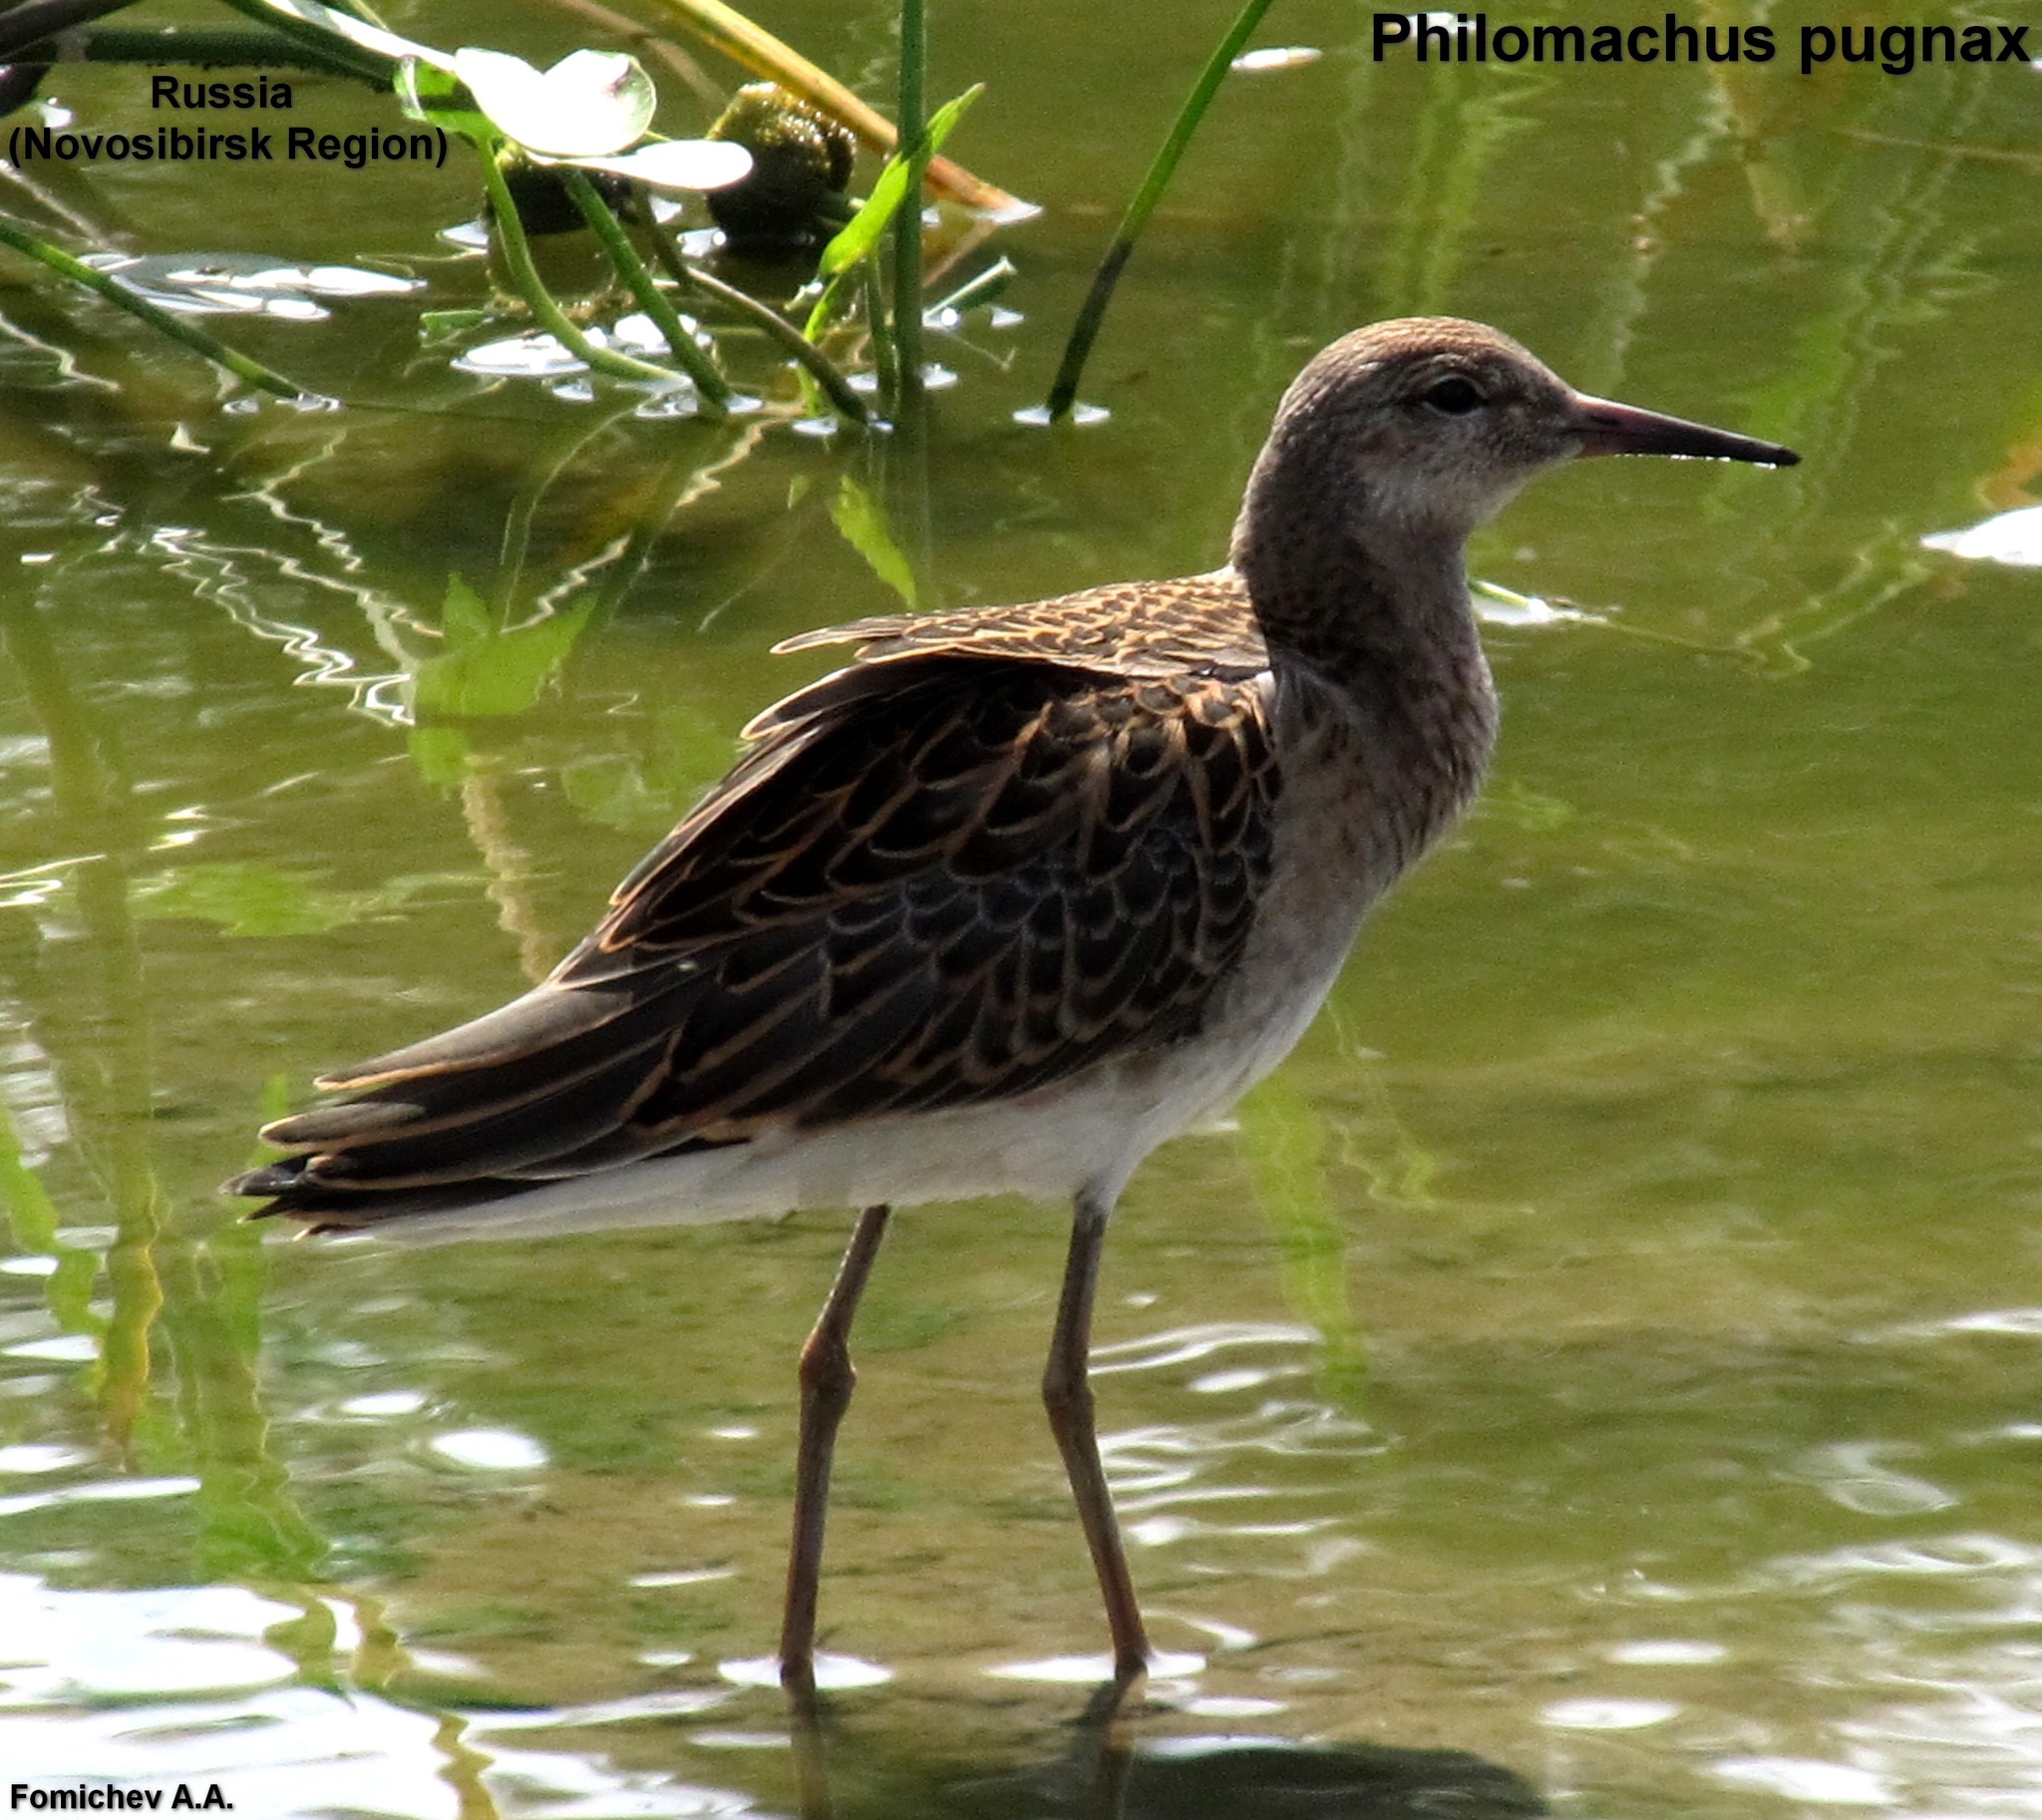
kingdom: Animalia
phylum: Chordata
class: Aves
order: Charadriiformes
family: Scolopacidae
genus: Calidris
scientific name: Calidris pugnax
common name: Ruff
